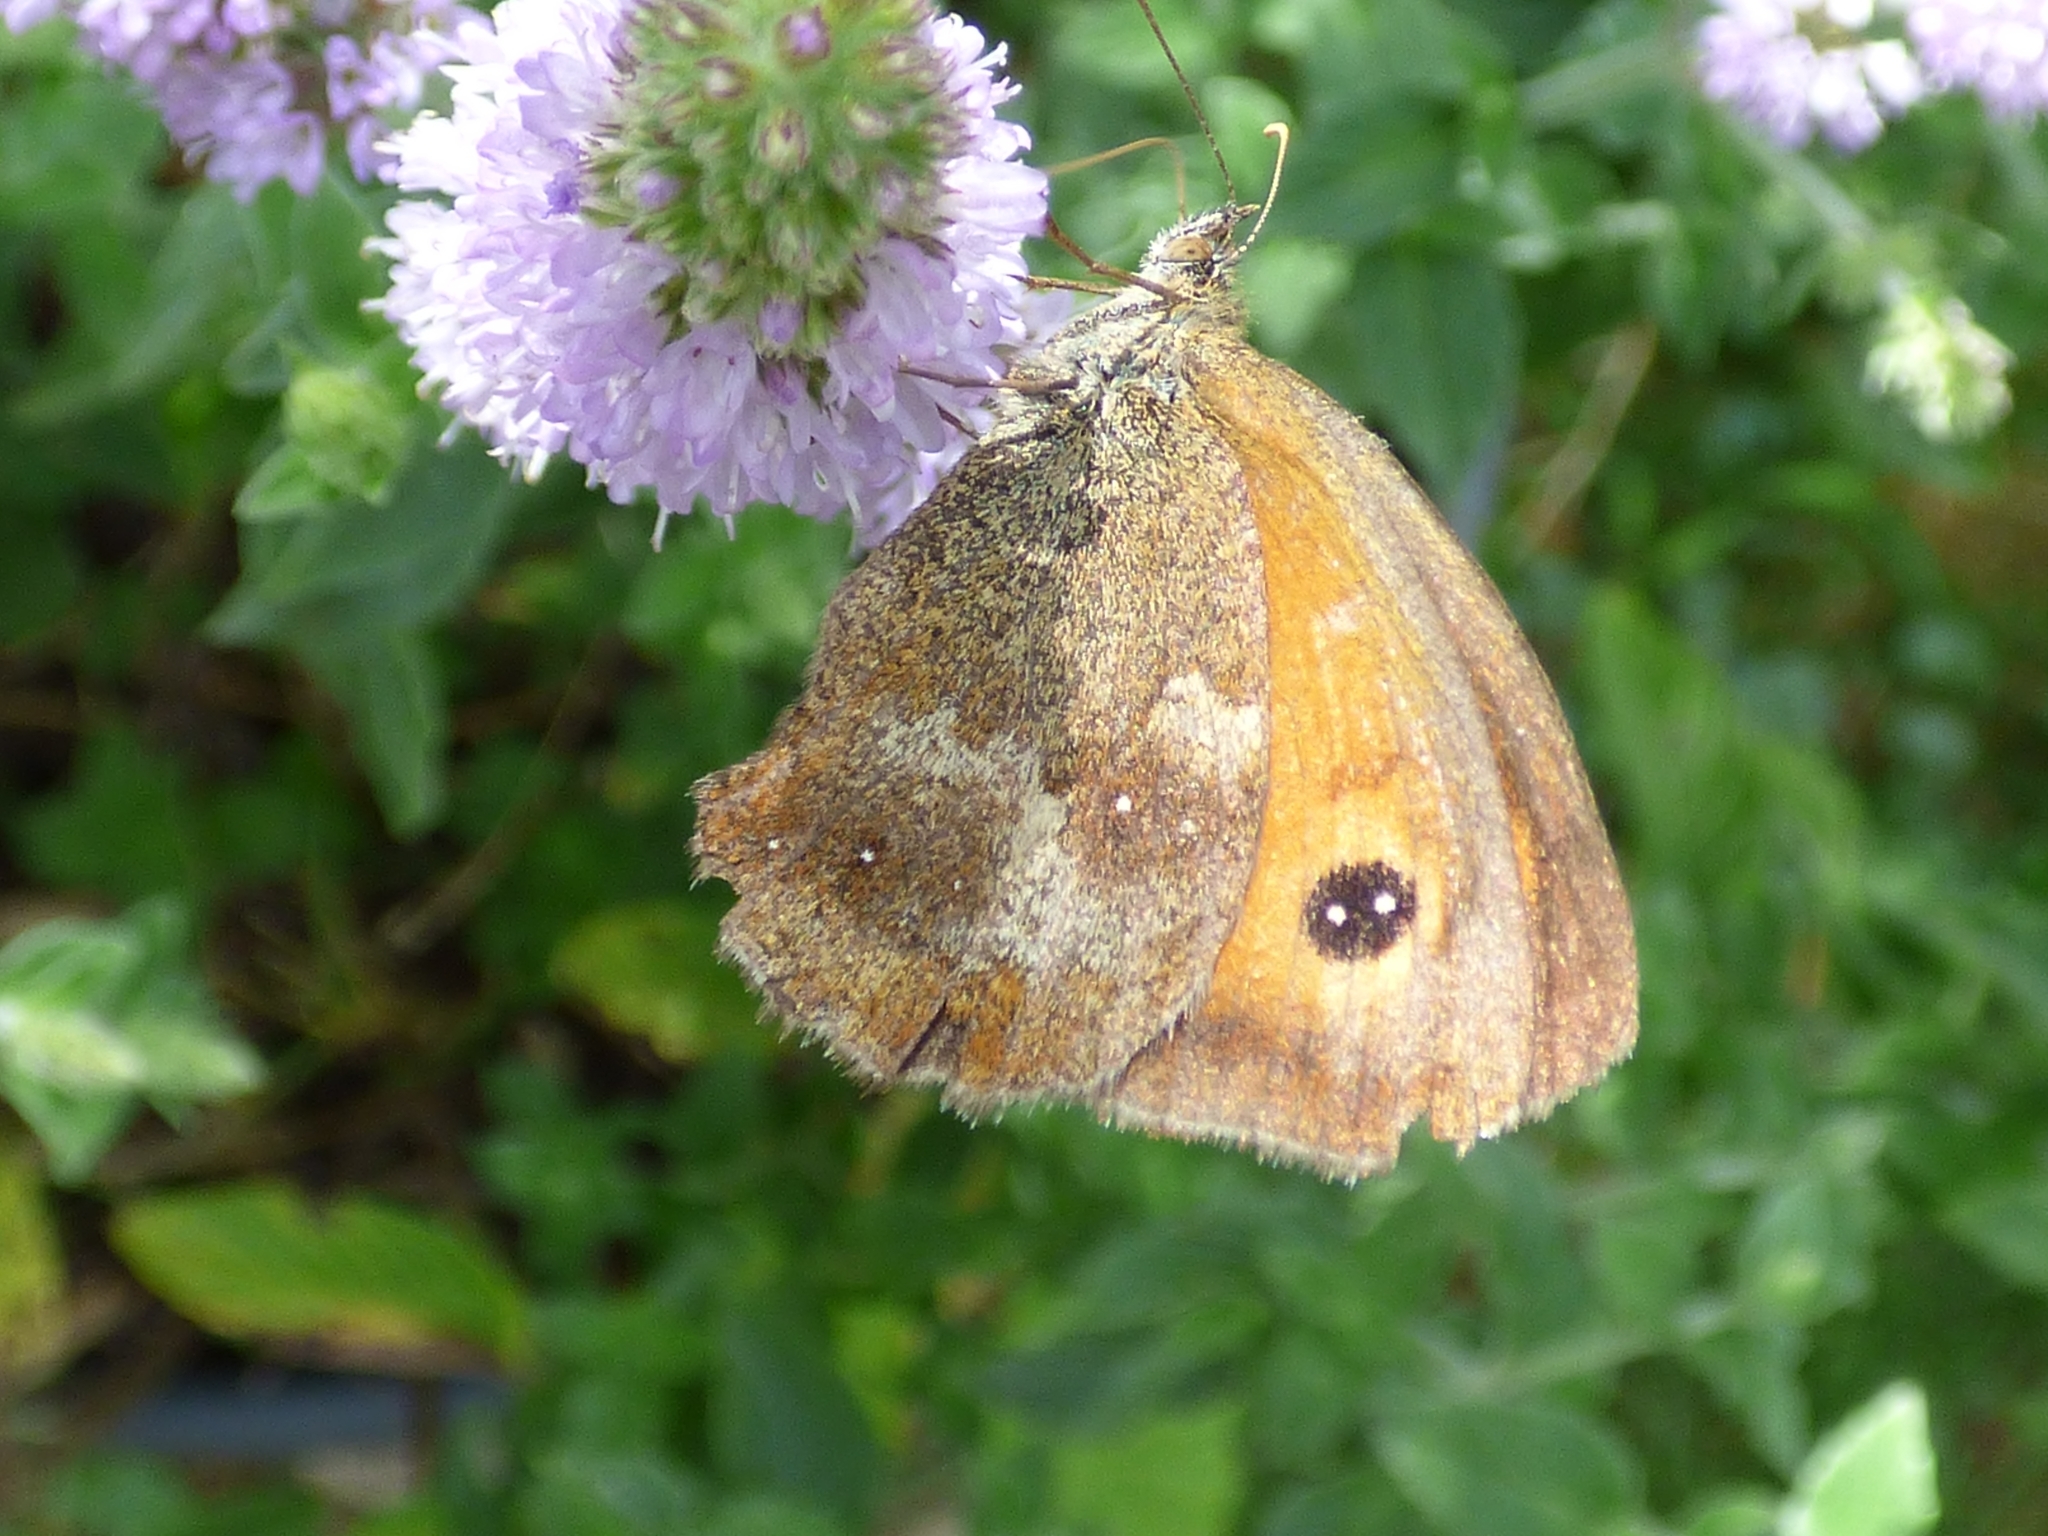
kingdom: Animalia
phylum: Arthropoda
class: Insecta
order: Lepidoptera
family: Nymphalidae
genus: Pyronia
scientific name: Pyronia tithonus
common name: Gatekeeper
